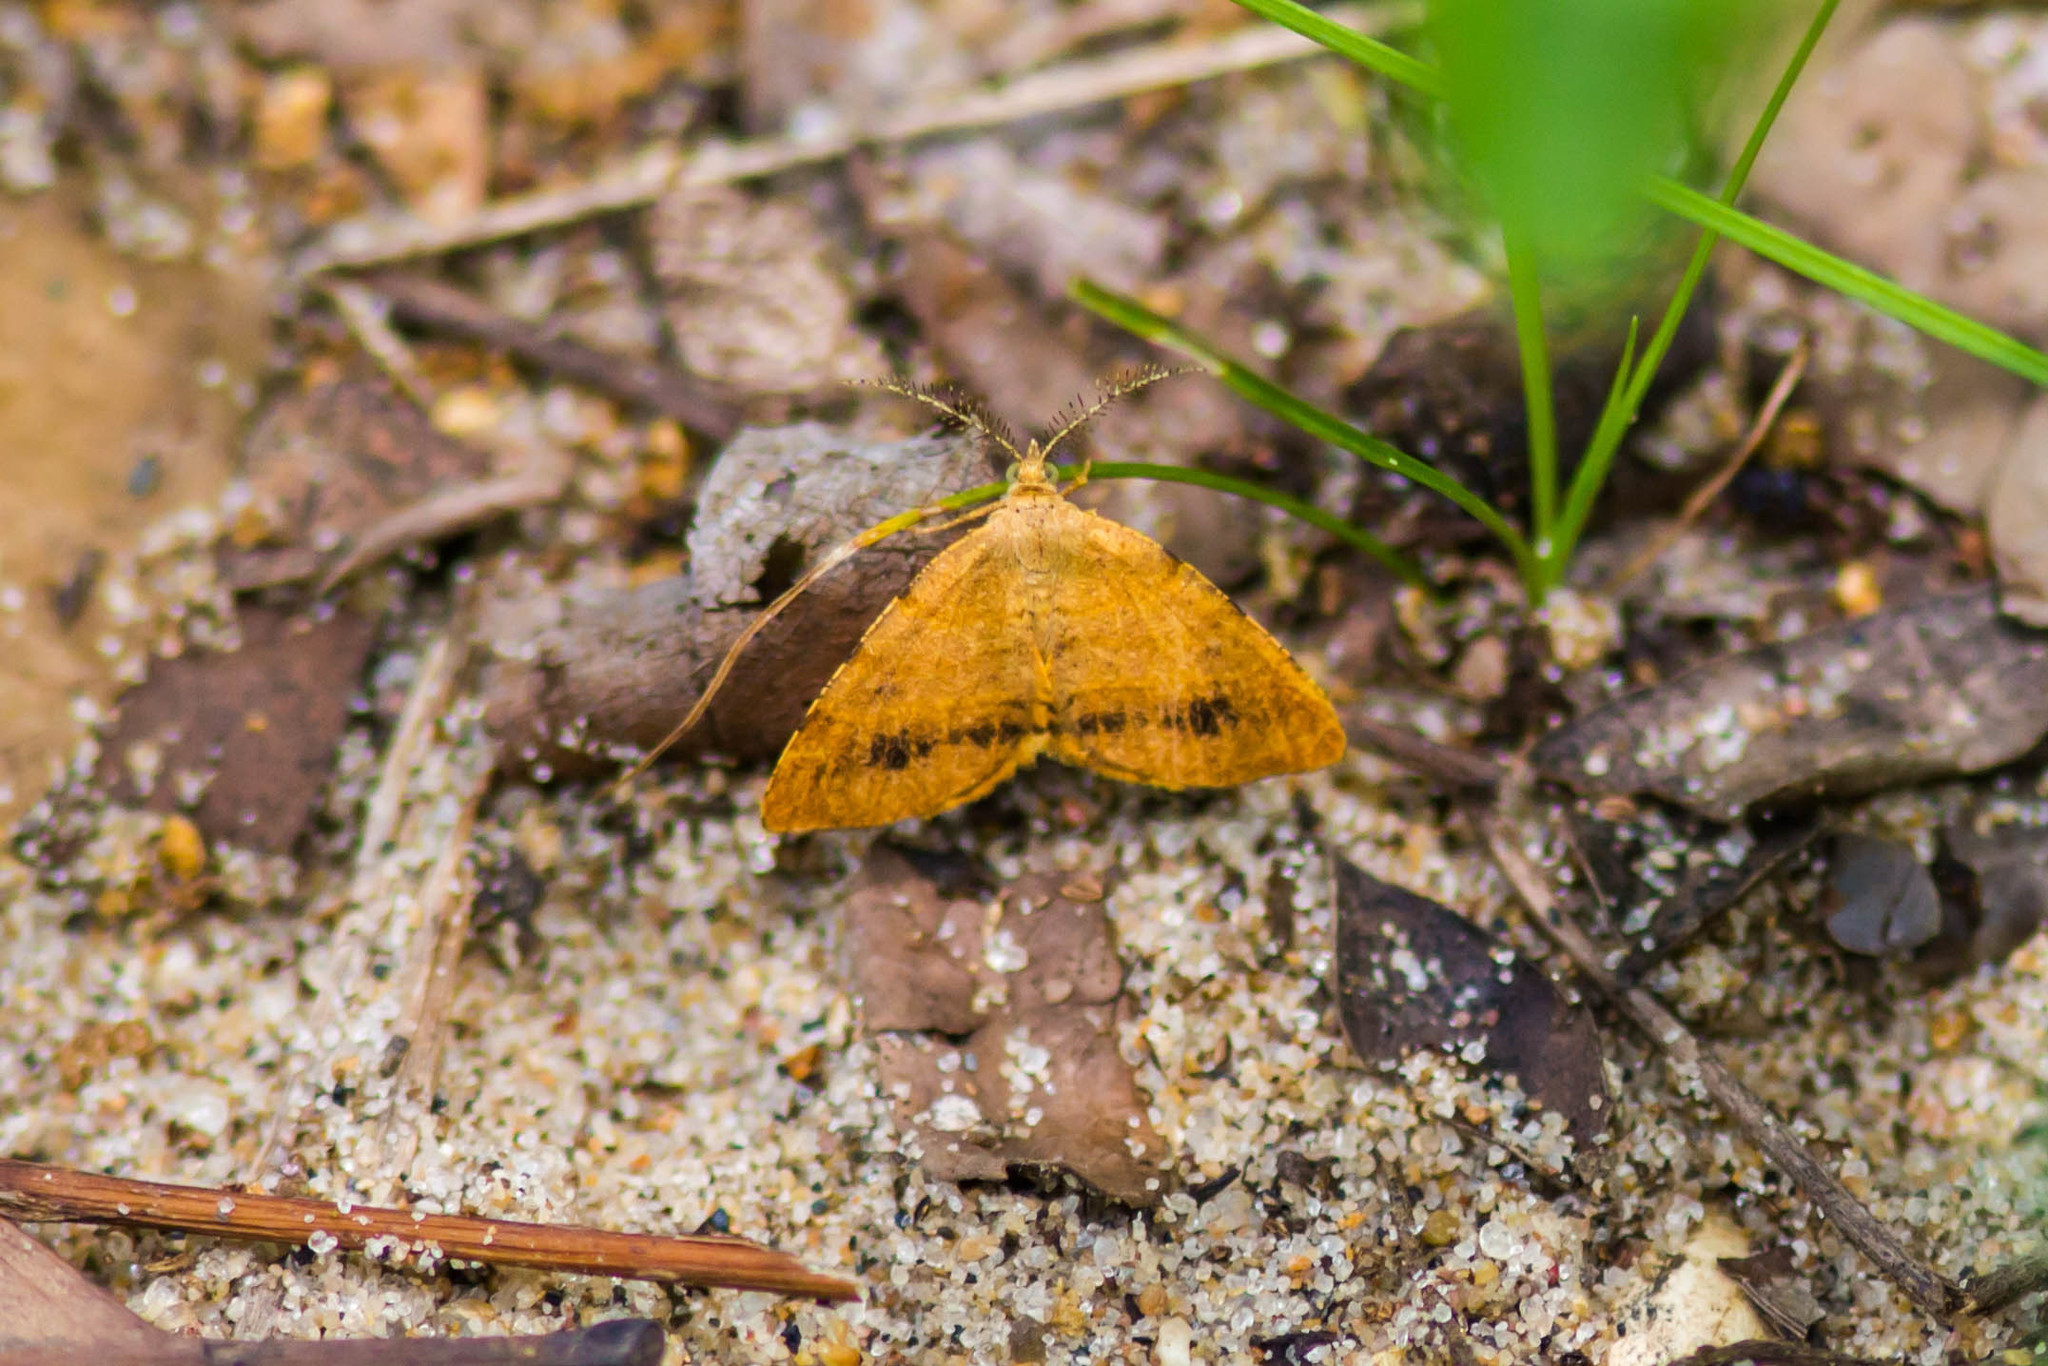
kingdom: Animalia
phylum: Arthropoda
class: Insecta
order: Lepidoptera
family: Geometridae
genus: Mellilla
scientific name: Mellilla xanthometata
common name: Orange wing moth
